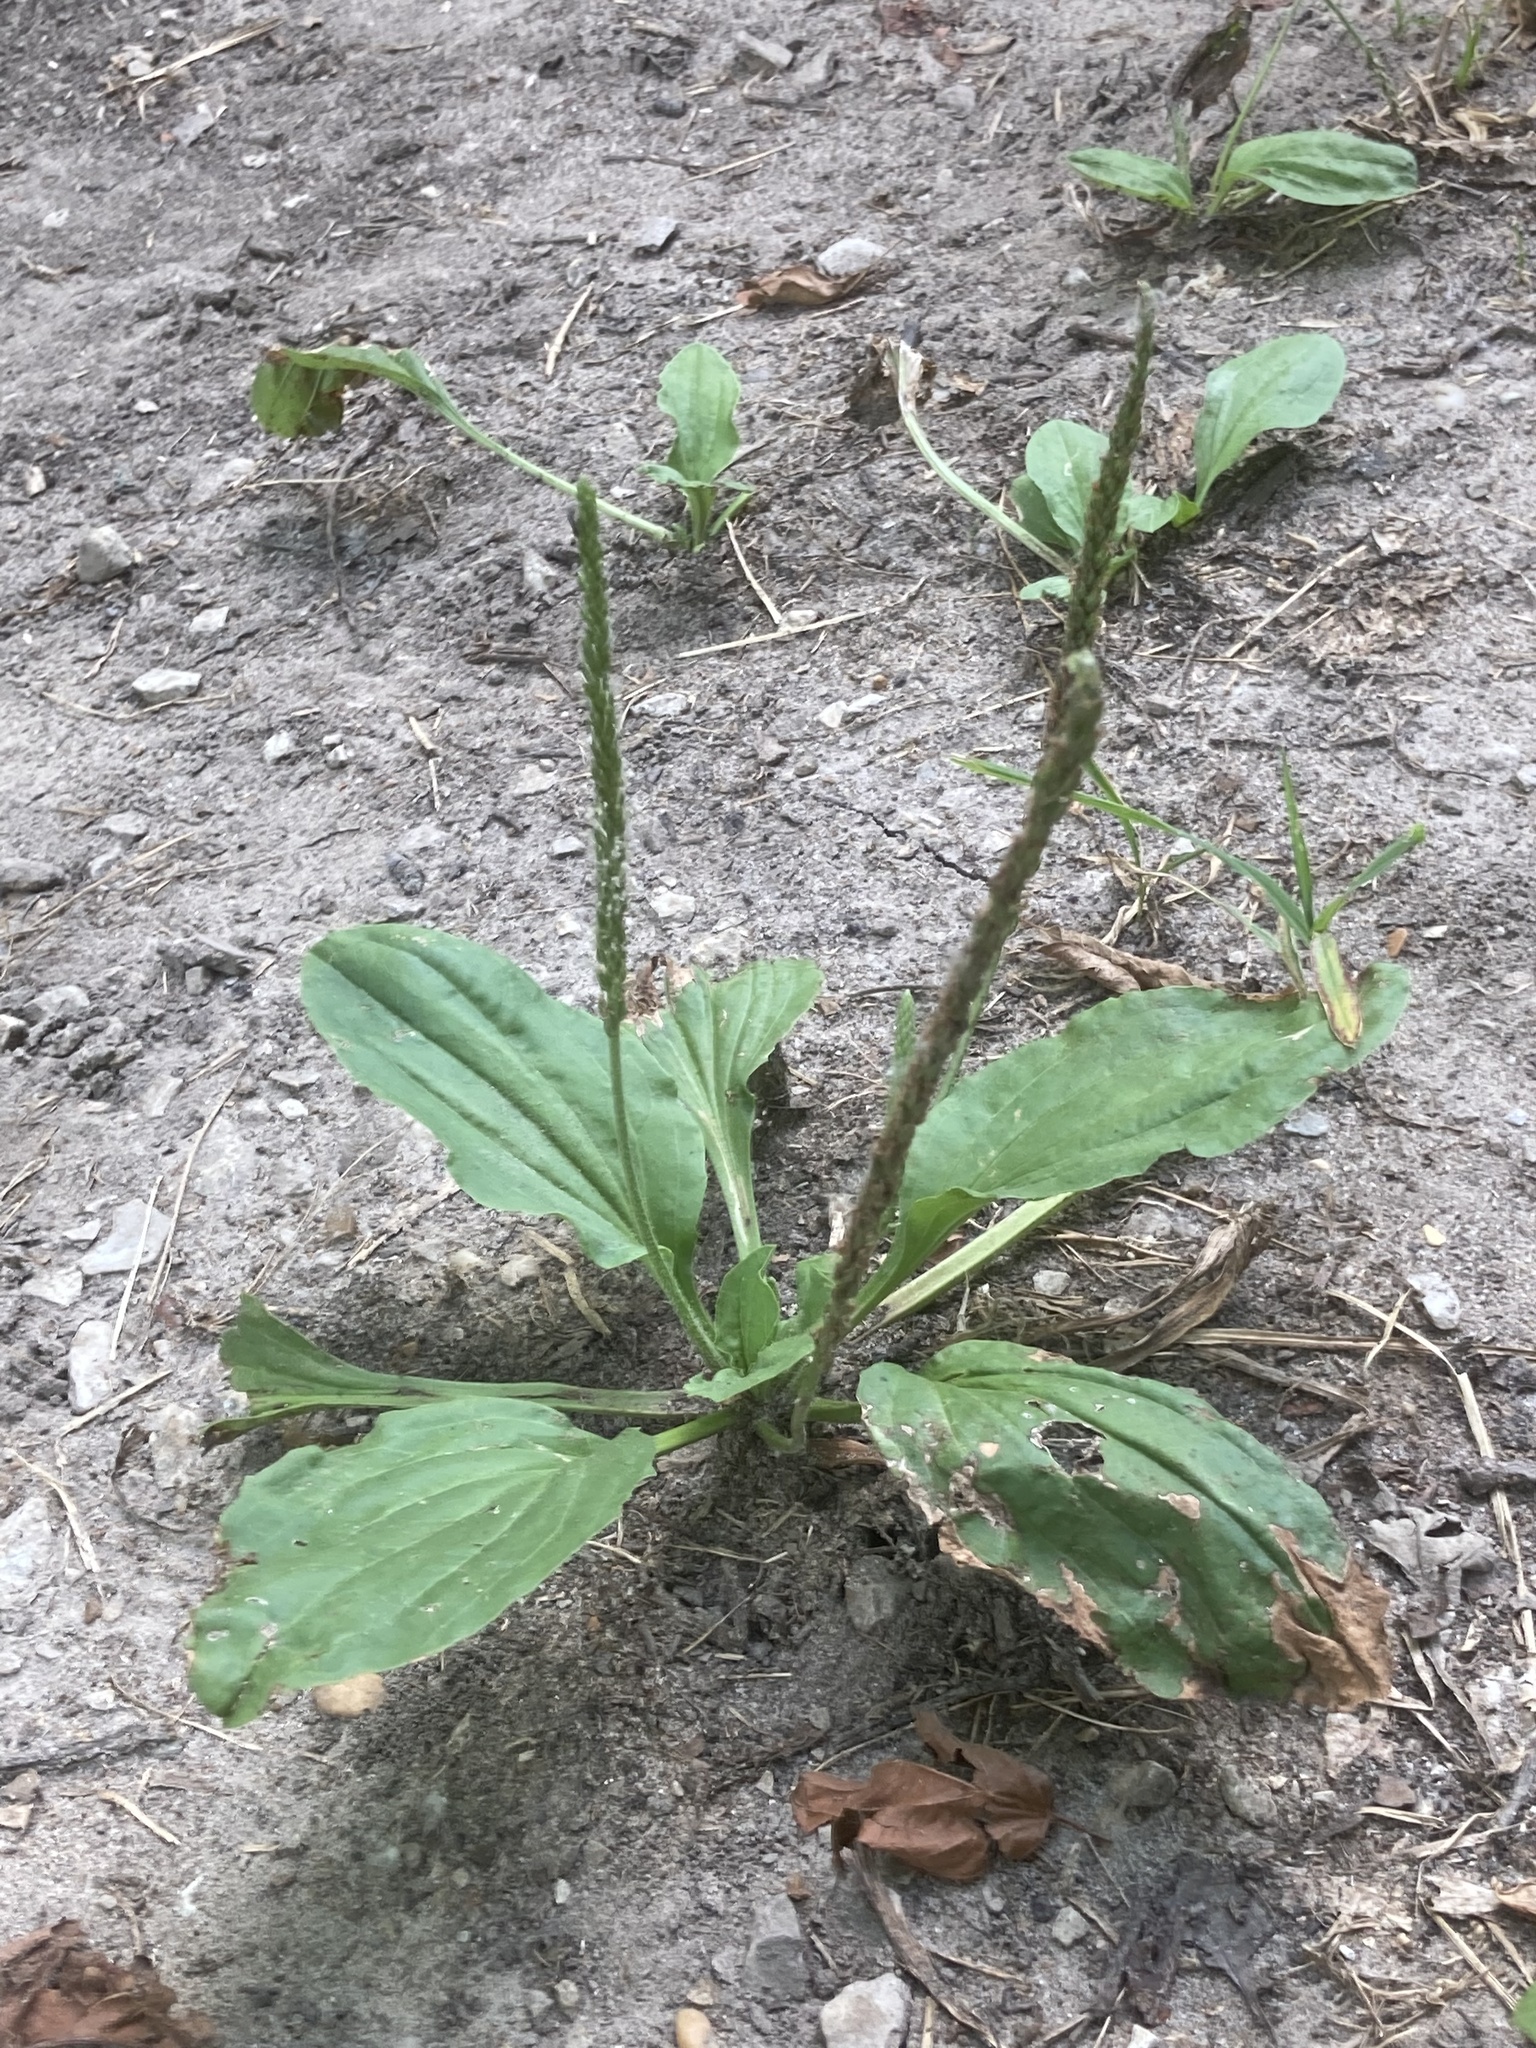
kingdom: Plantae
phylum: Tracheophyta
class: Magnoliopsida
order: Lamiales
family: Plantaginaceae
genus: Plantago
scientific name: Plantago rugelii
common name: American plantain
